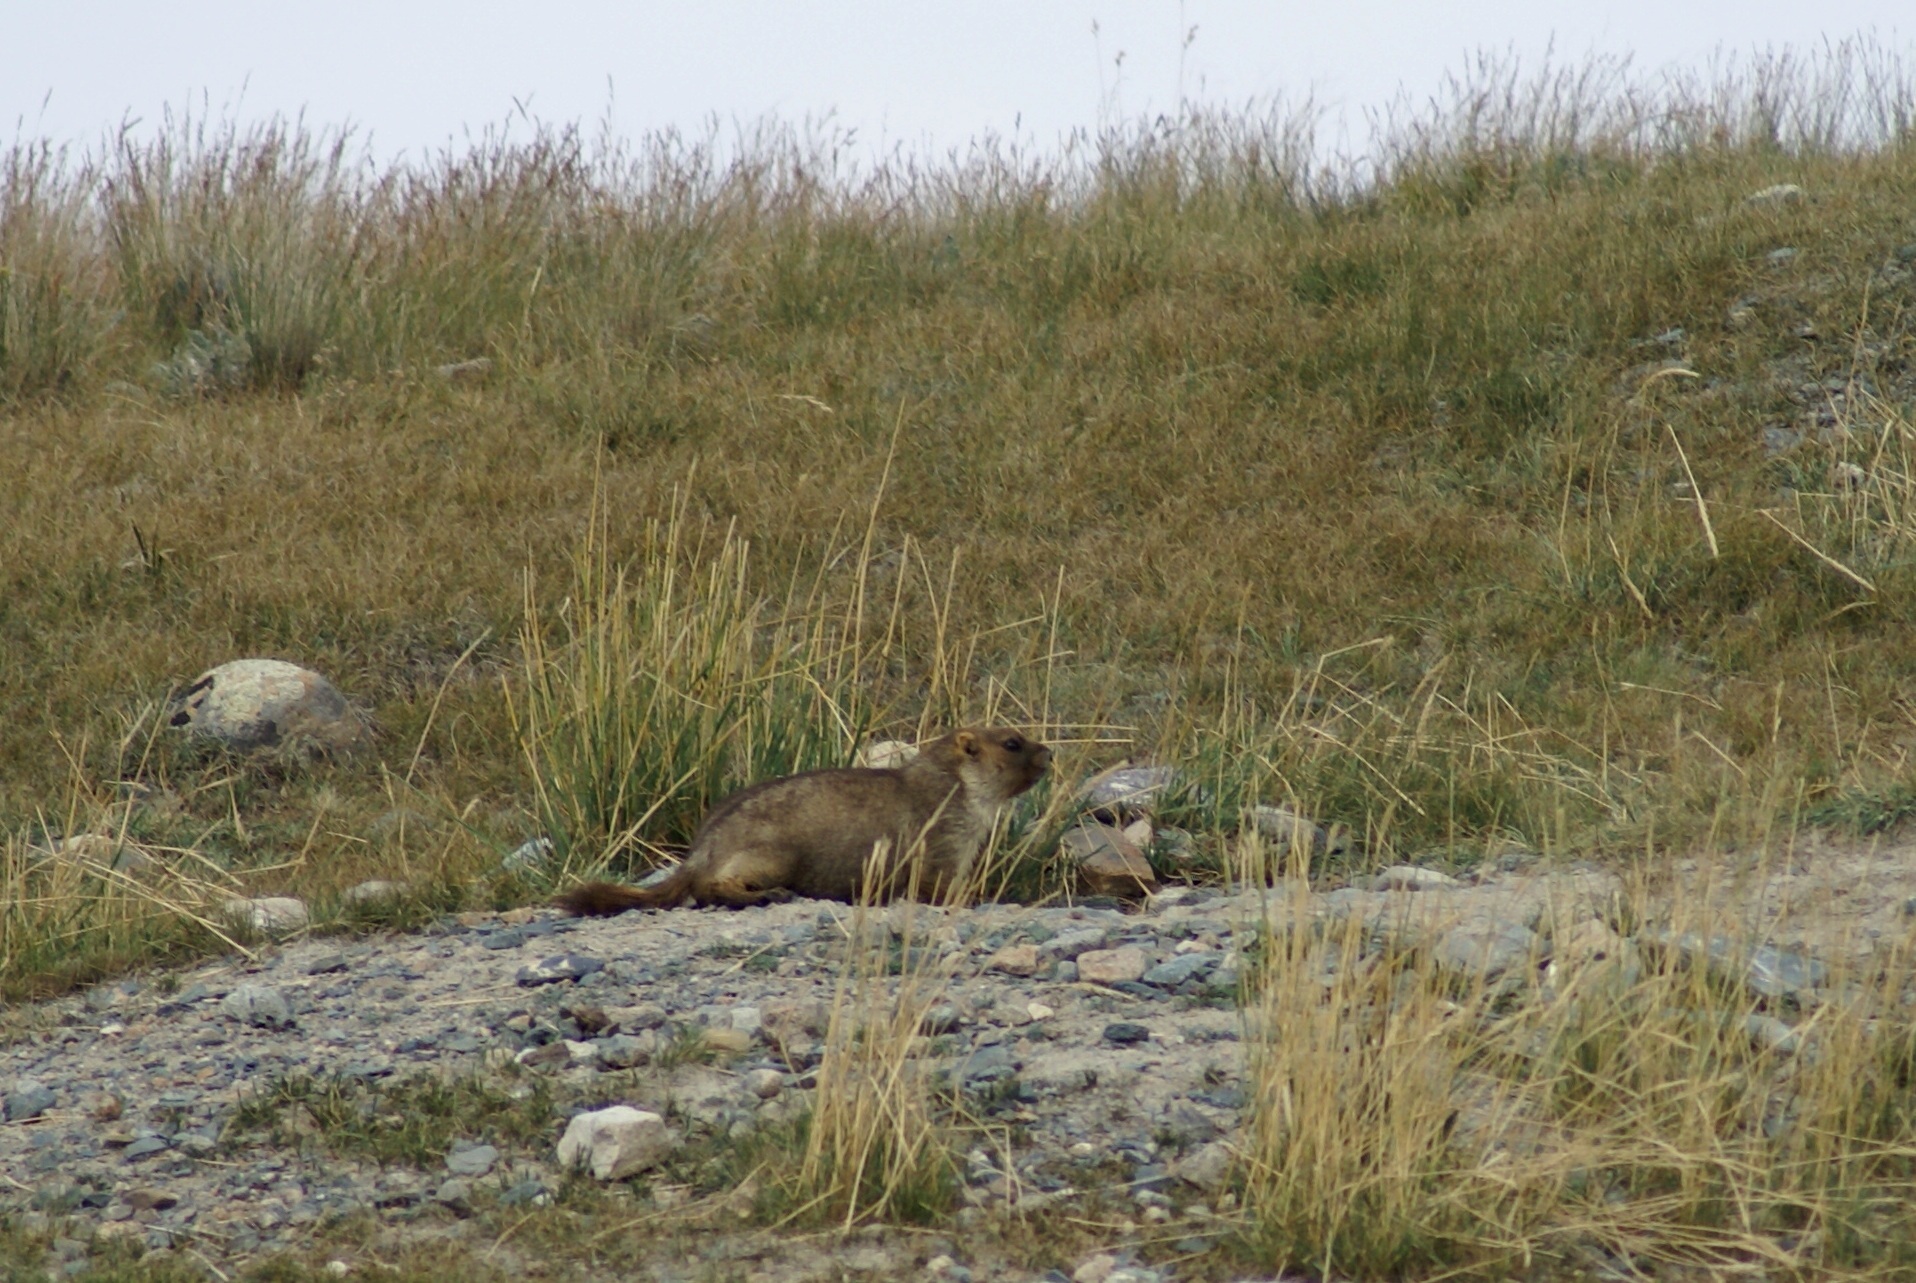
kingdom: Animalia
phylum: Chordata
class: Mammalia
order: Rodentia
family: Sciuridae
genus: Marmota
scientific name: Marmota baibacina
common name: Gray marmot
